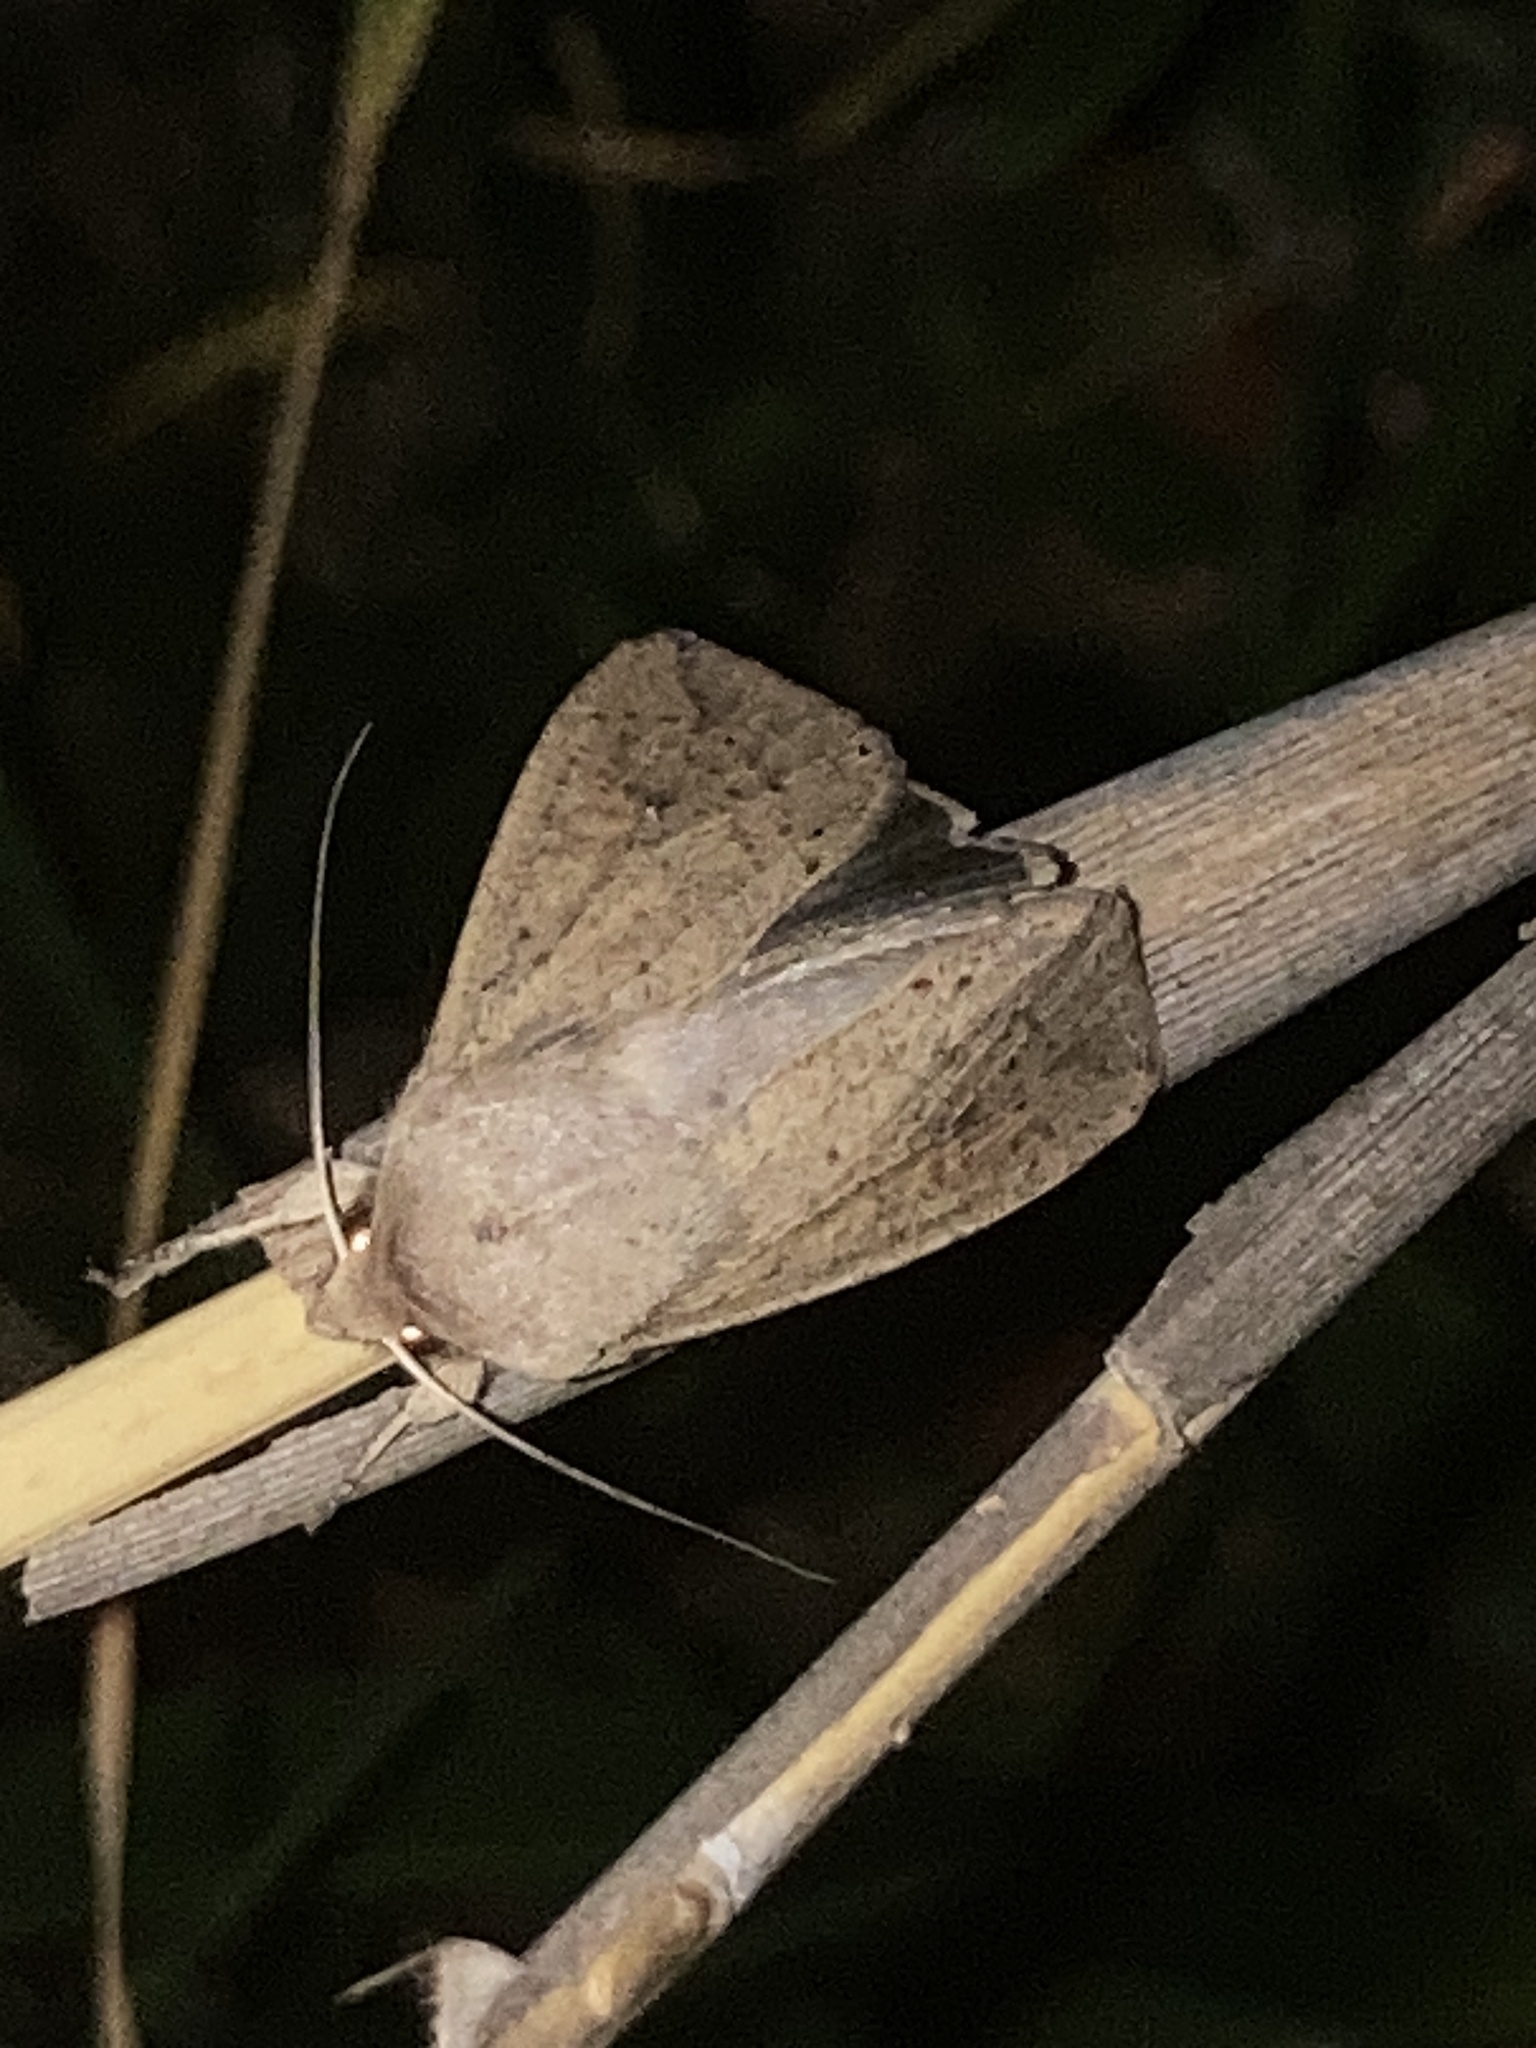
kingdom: Animalia
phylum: Arthropoda
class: Insecta
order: Lepidoptera
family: Noctuidae
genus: Mythimna
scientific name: Mythimna convecta
